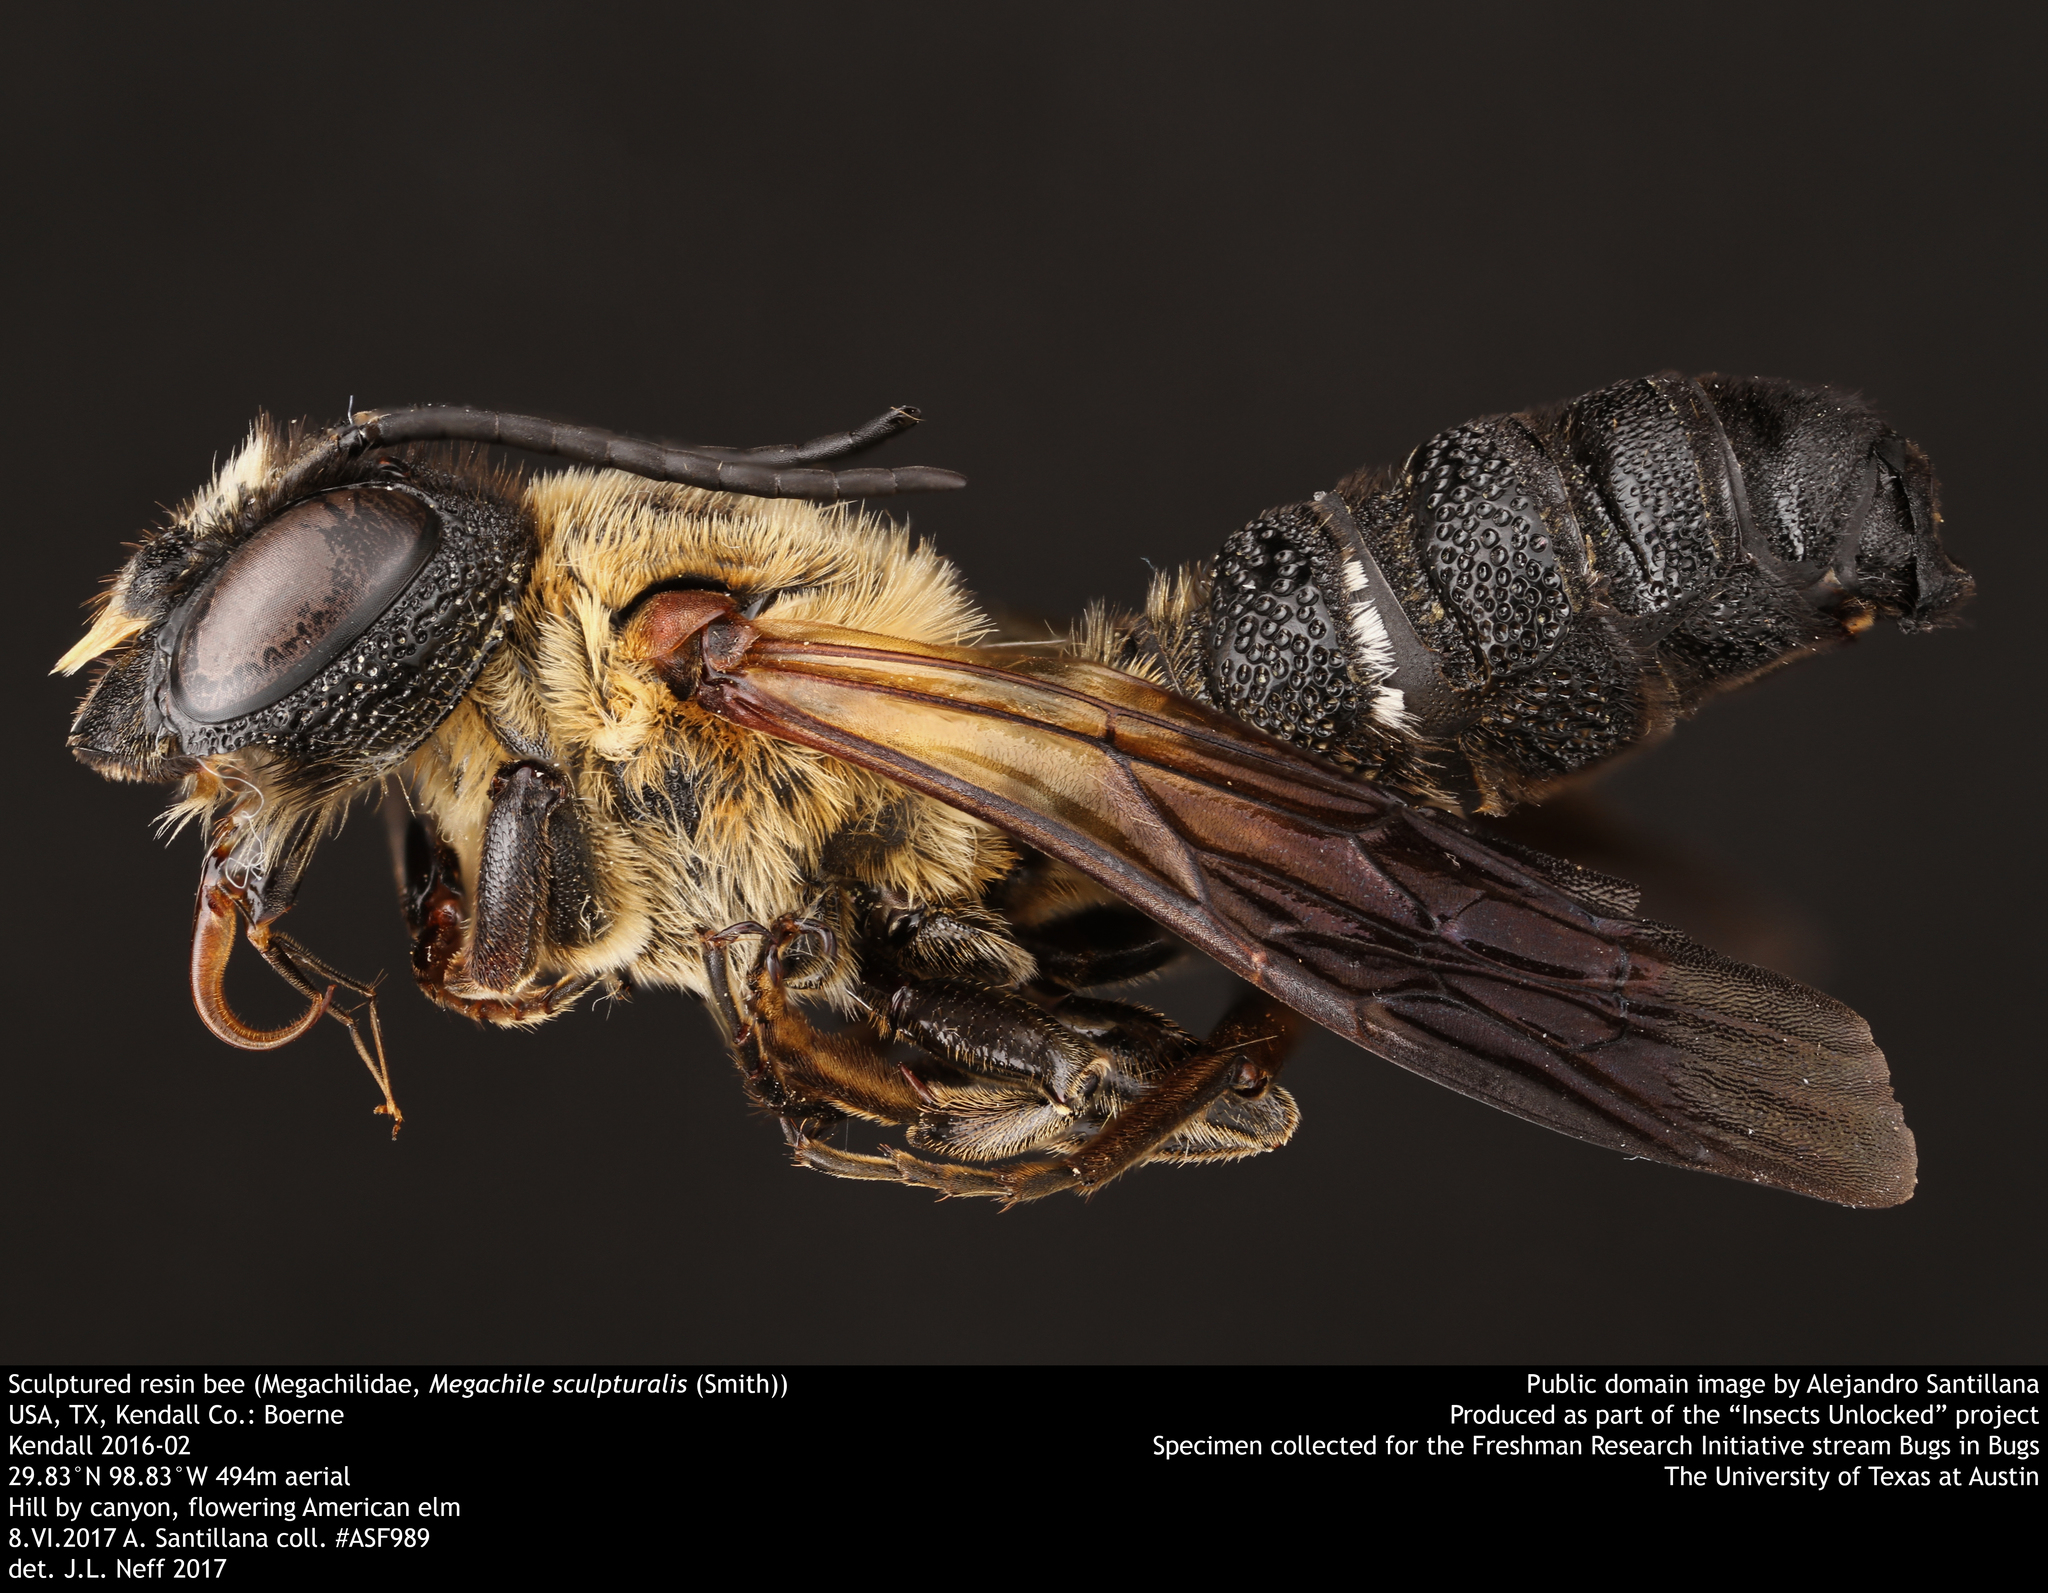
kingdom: Animalia
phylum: Arthropoda
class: Insecta
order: Hymenoptera
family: Megachilidae
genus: Megachile
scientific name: Megachile sculpturalis
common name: Sculptured resin bee
